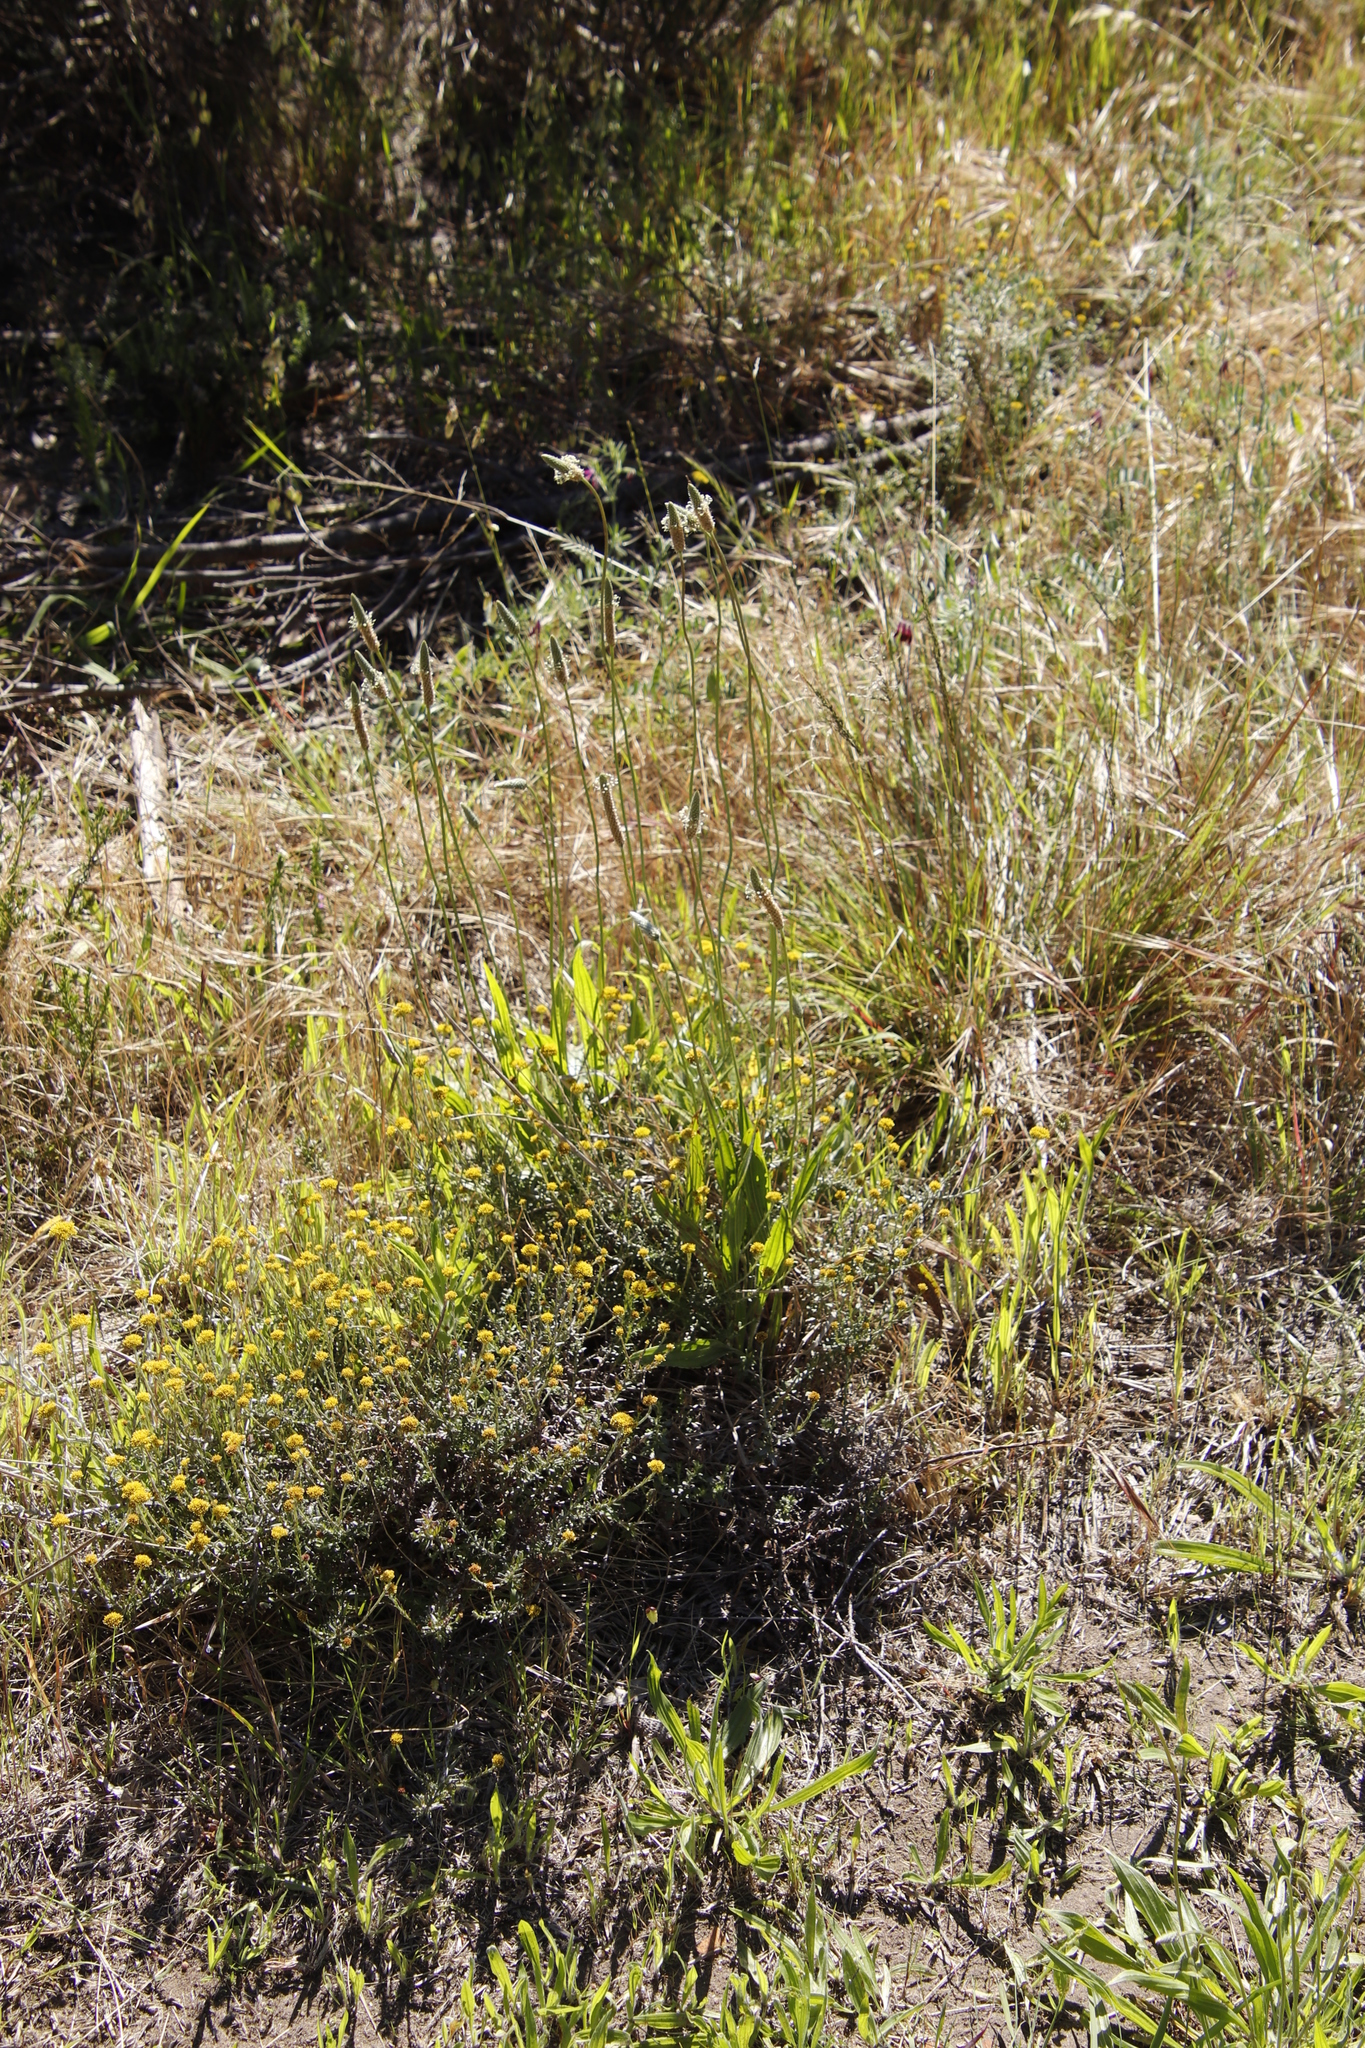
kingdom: Plantae
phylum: Tracheophyta
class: Magnoliopsida
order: Lamiales
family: Plantaginaceae
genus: Plantago
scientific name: Plantago lanceolata
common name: Ribwort plantain
